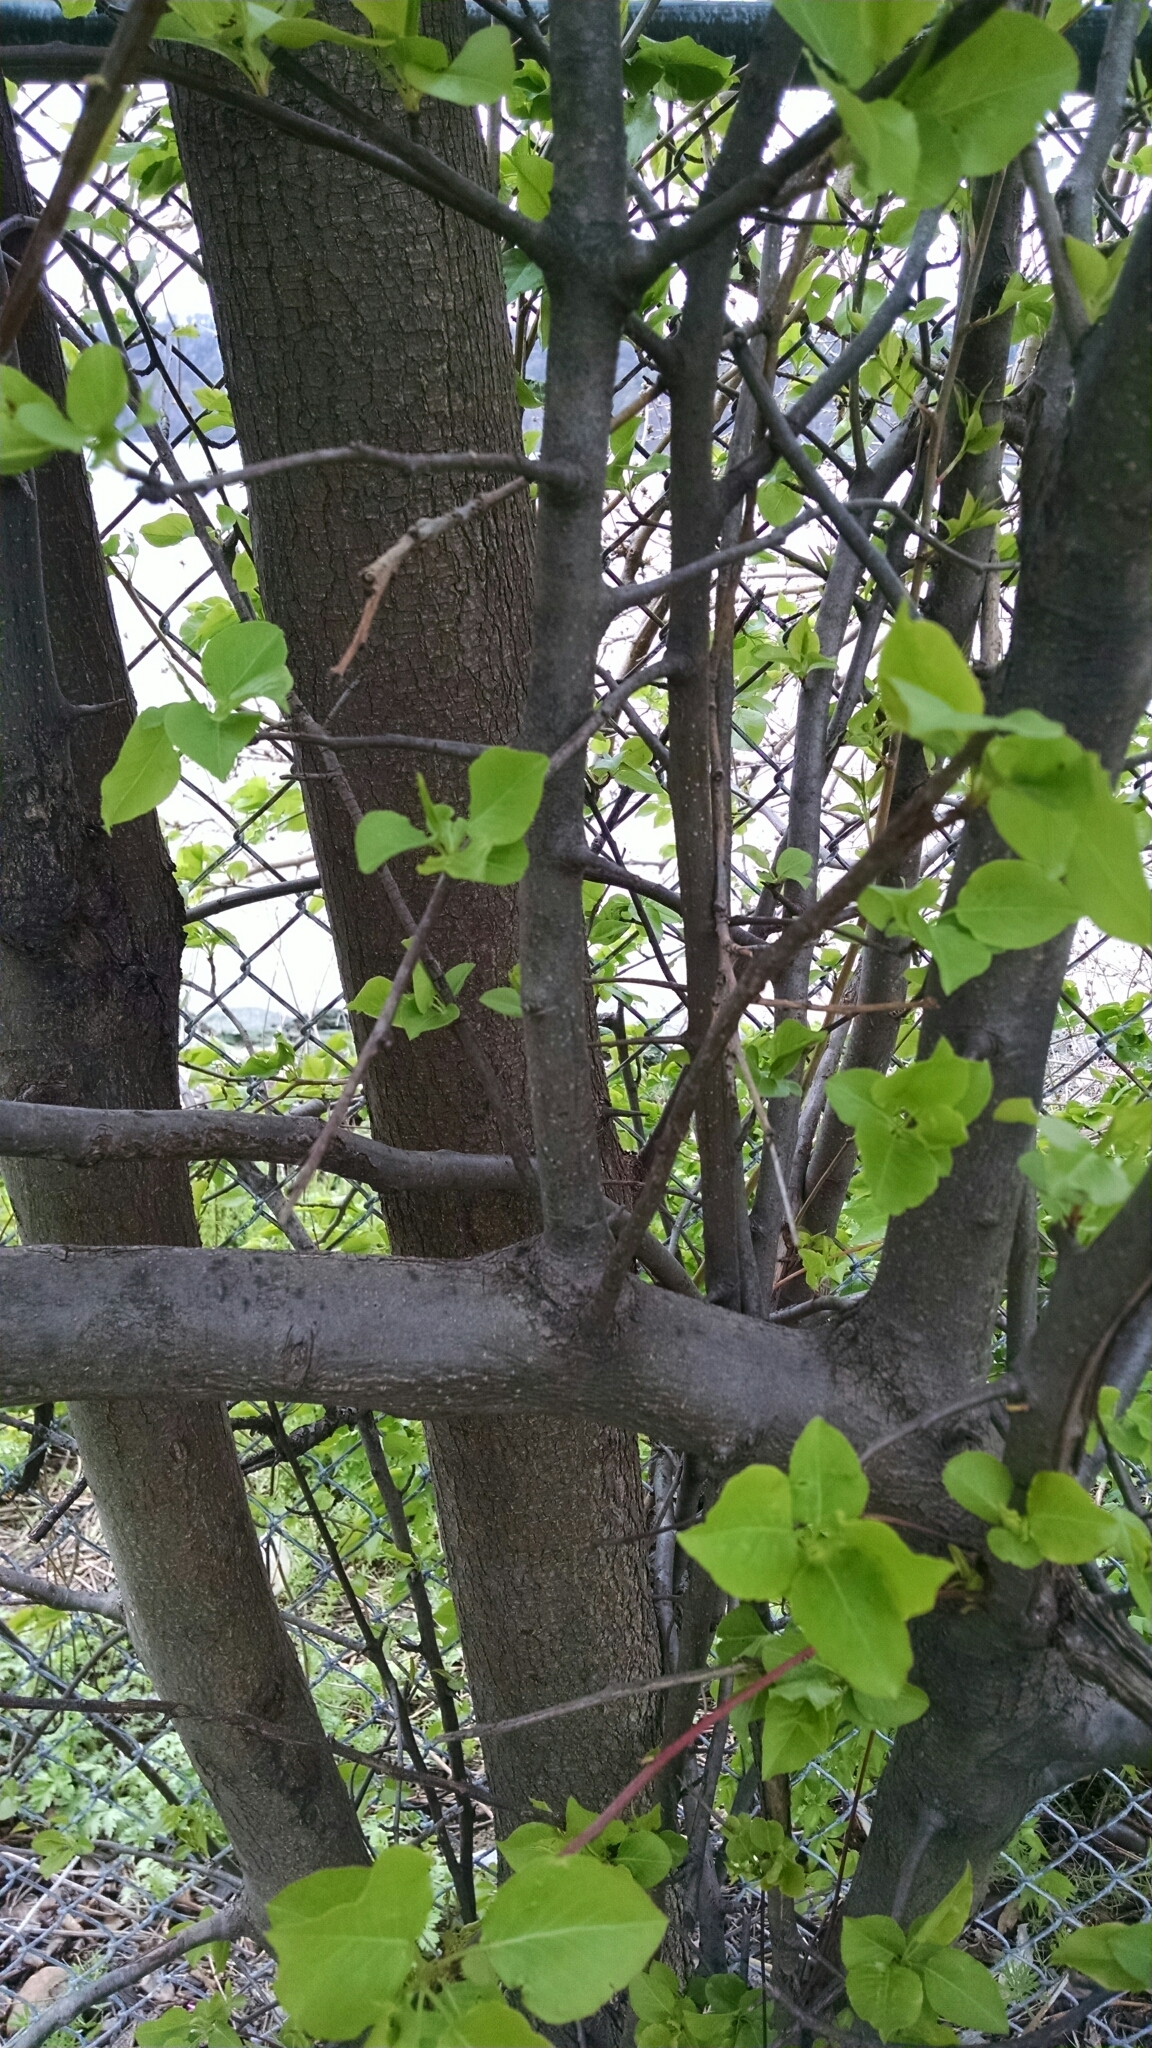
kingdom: Plantae
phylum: Tracheophyta
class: Magnoliopsida
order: Rosales
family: Rosaceae
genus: Pyrus
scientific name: Pyrus calleryana
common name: Callery pear
